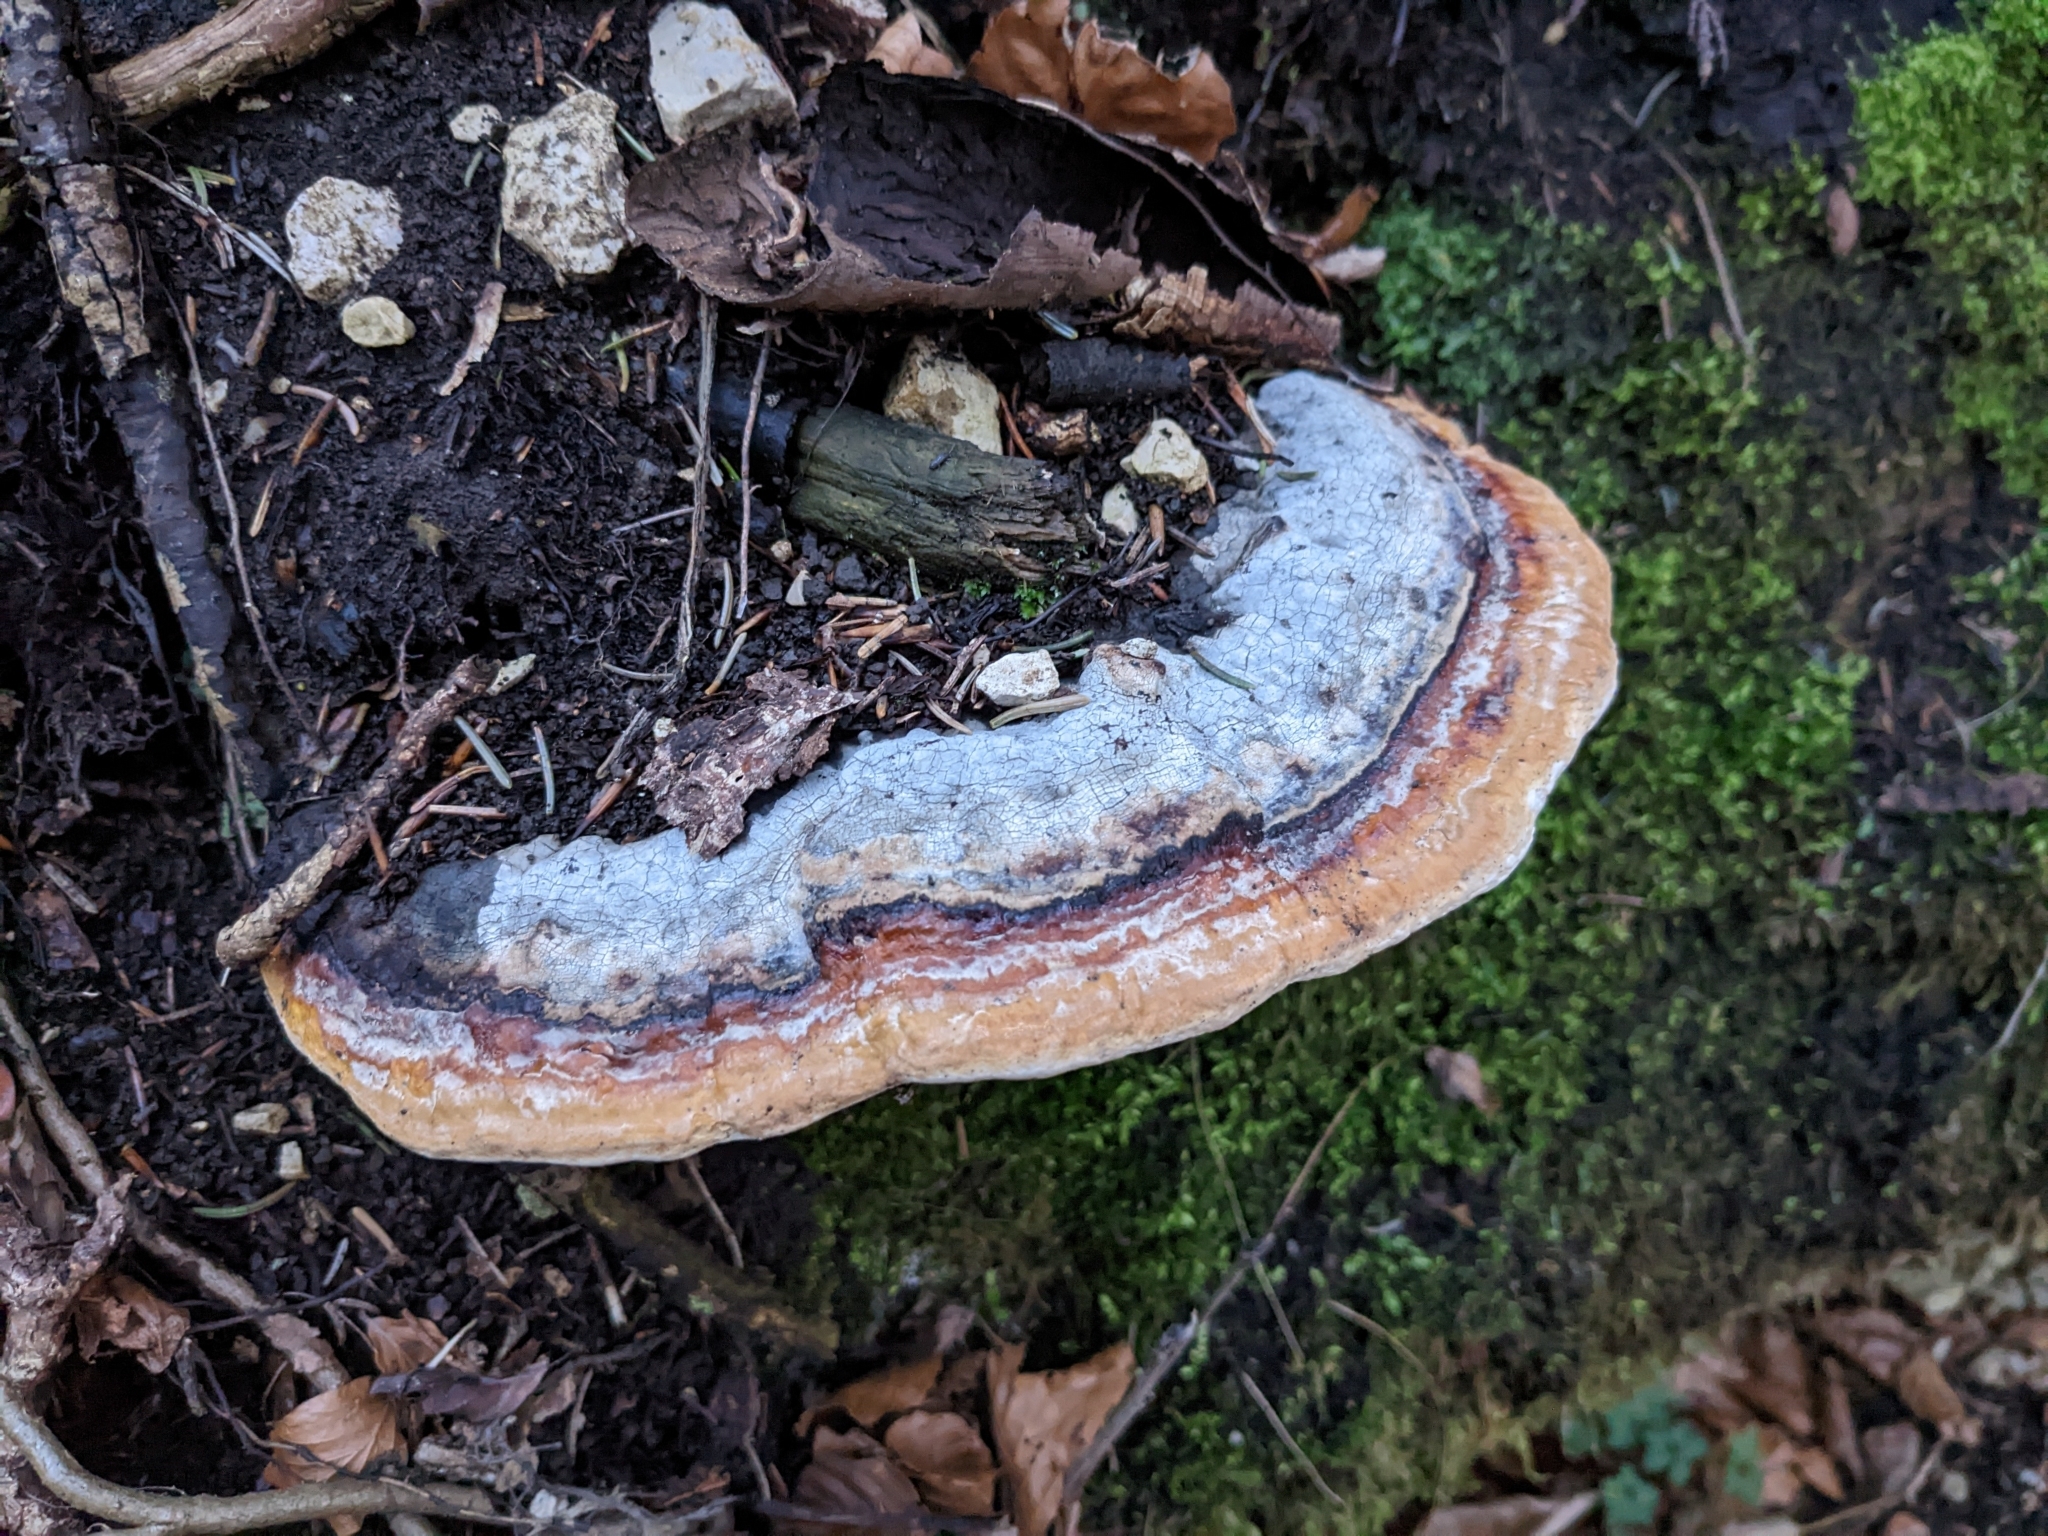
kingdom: Fungi
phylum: Basidiomycota
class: Agaricomycetes
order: Polyporales
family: Fomitopsidaceae
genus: Fomitopsis
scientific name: Fomitopsis pinicola
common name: Red-belted bracket
